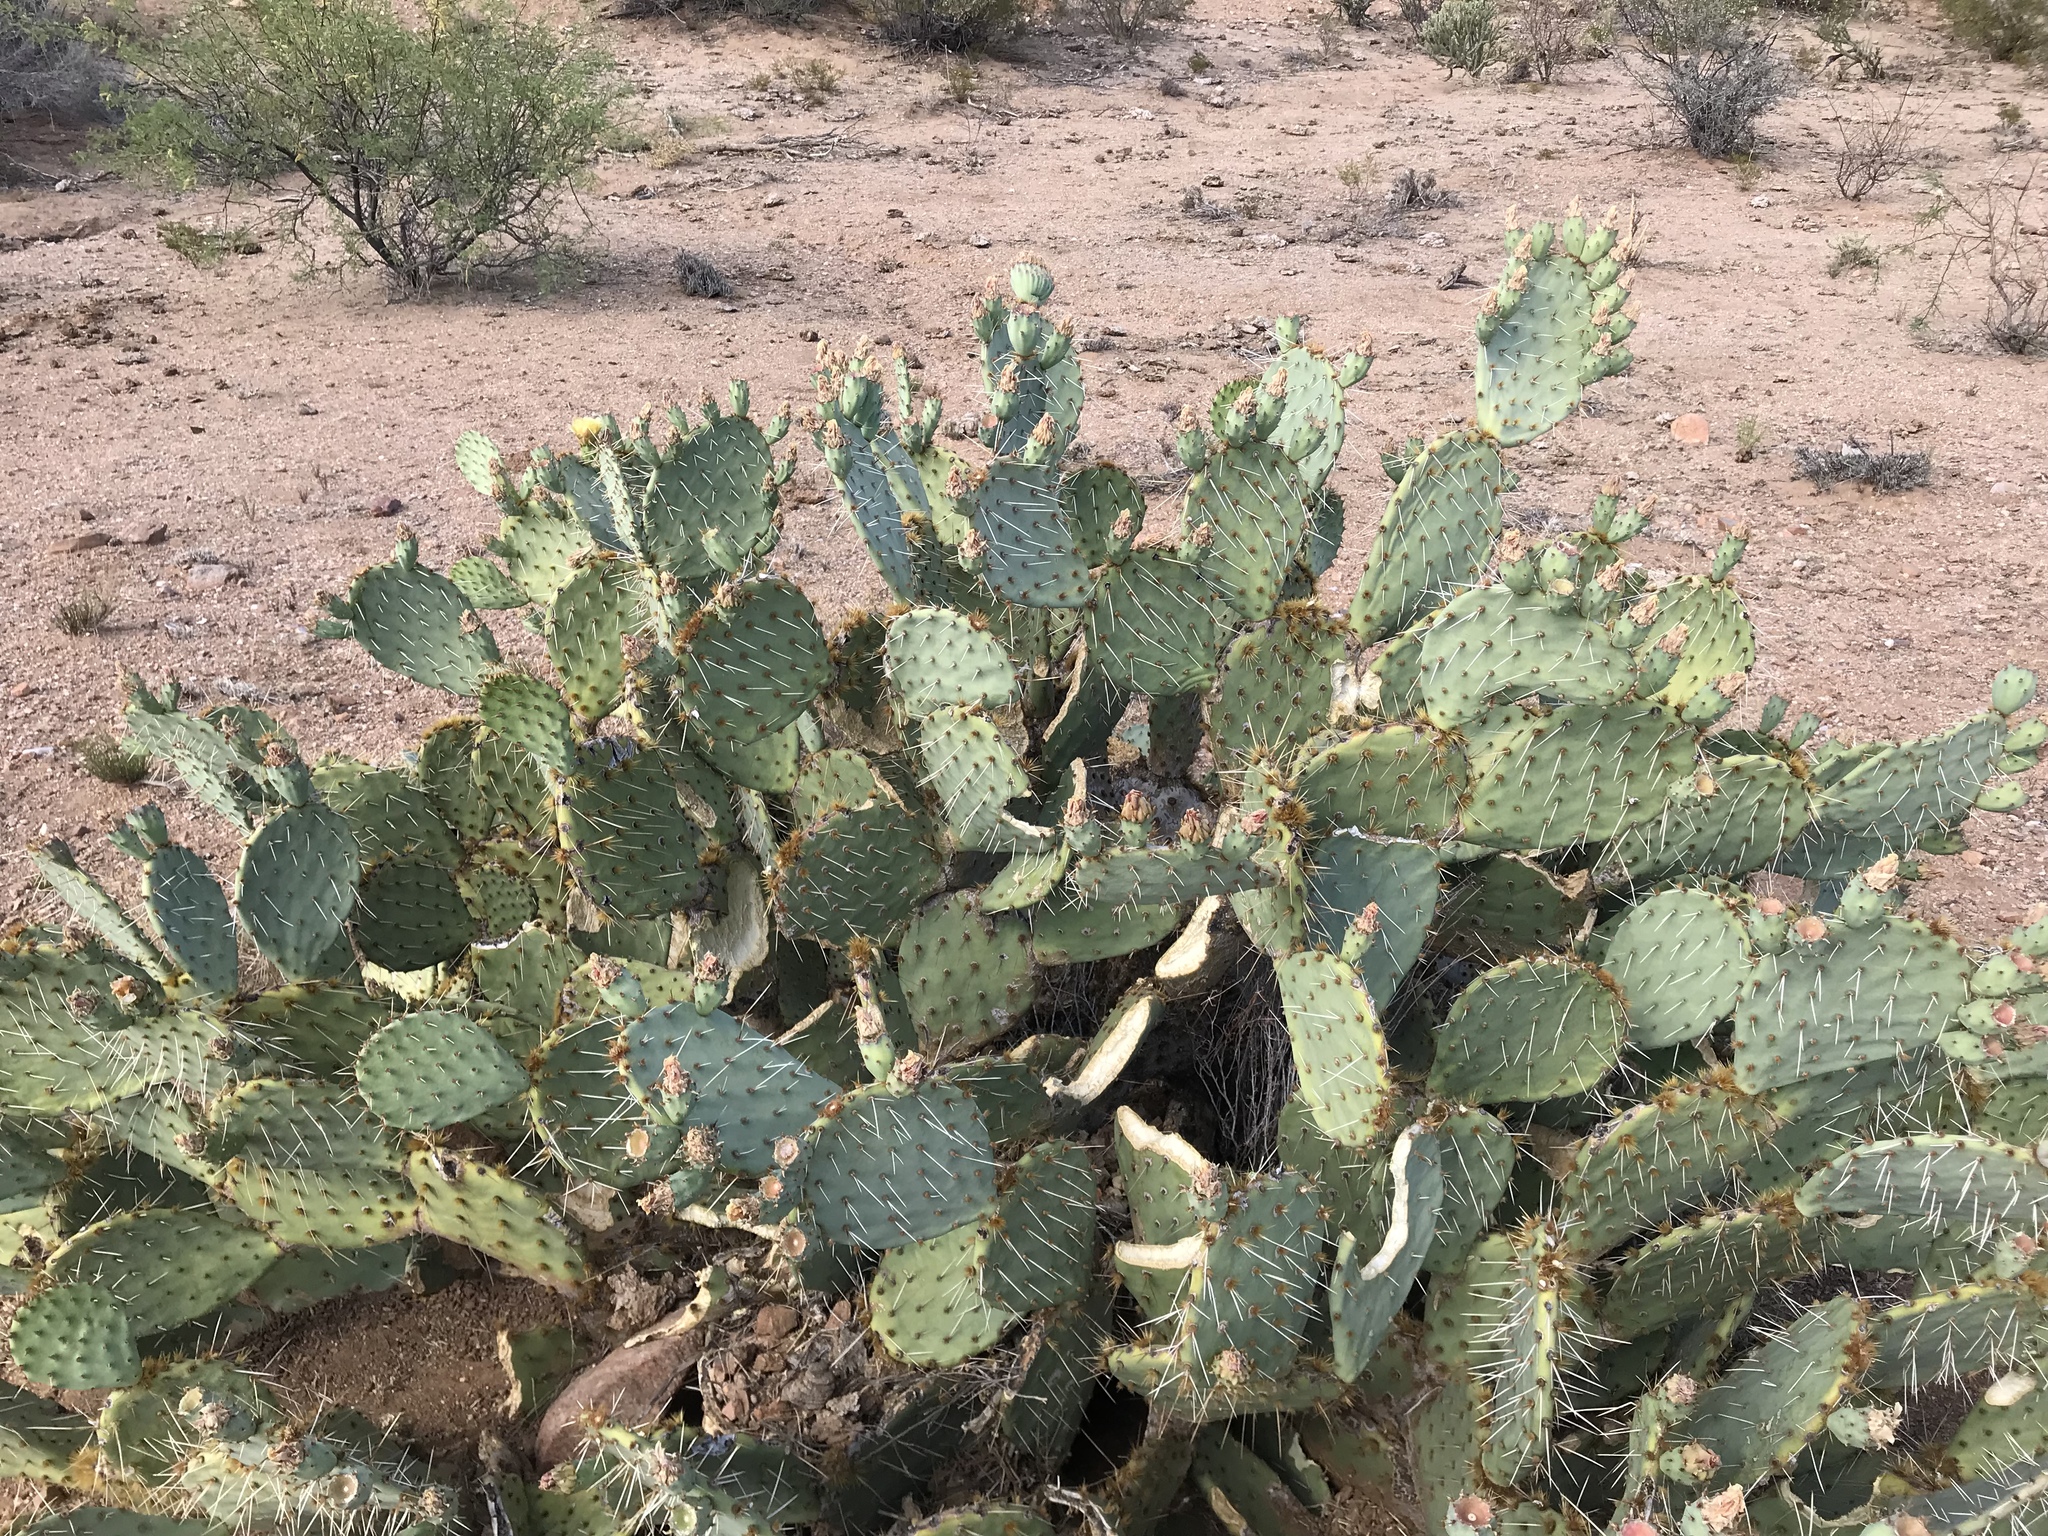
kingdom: Plantae
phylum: Tracheophyta
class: Magnoliopsida
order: Caryophyllales
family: Cactaceae
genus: Opuntia
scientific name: Opuntia engelmannii
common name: Cactus-apple
